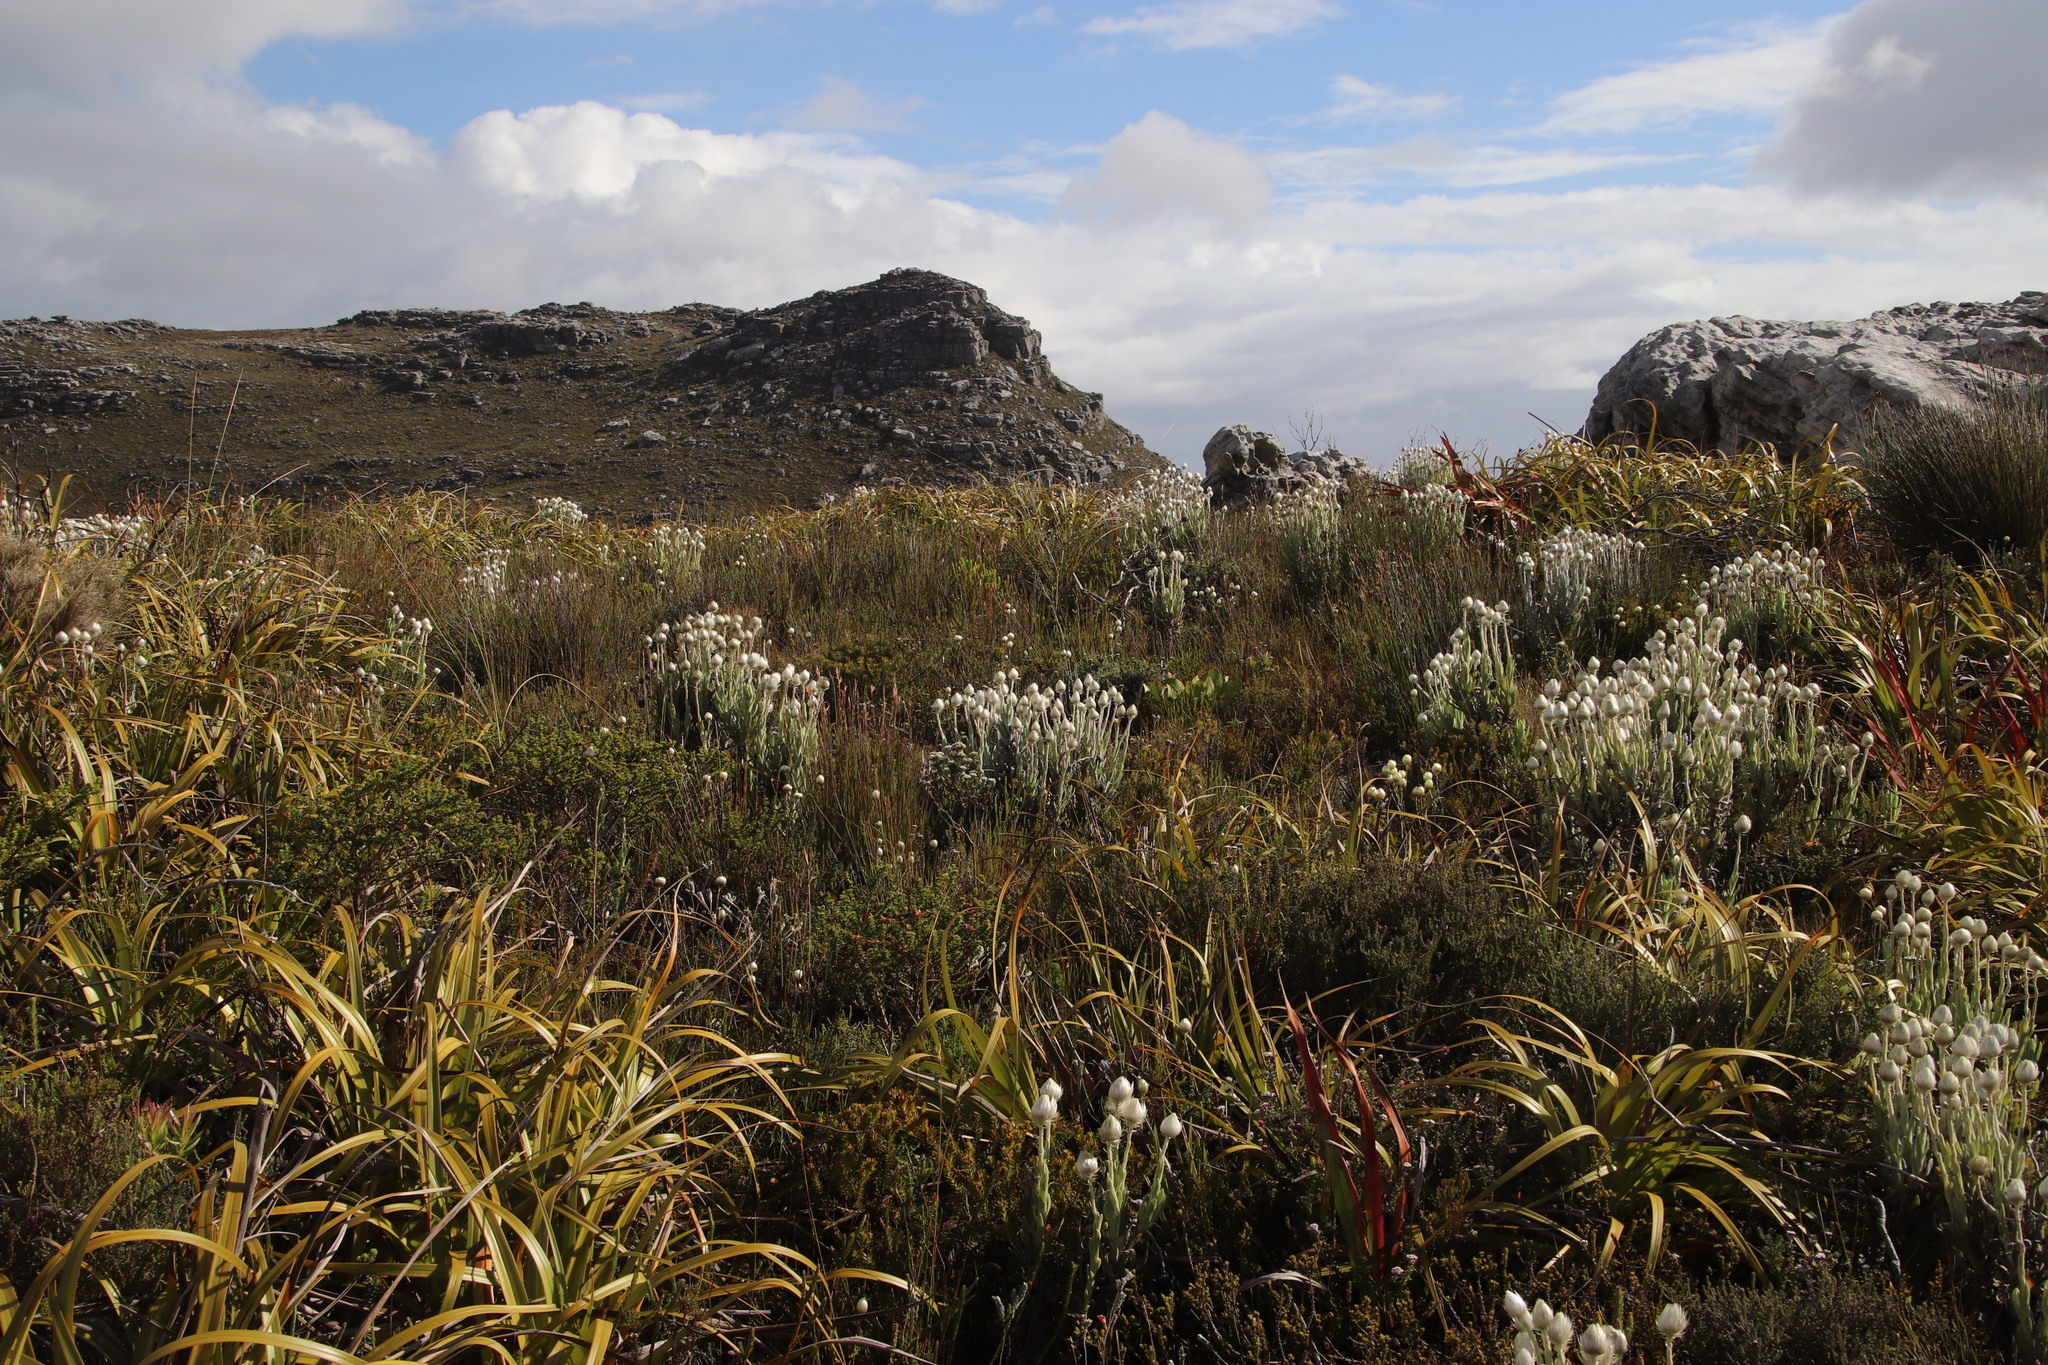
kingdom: Plantae
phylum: Tracheophyta
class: Magnoliopsida
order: Asterales
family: Asteraceae
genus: Syncarpha
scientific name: Syncarpha vestita
